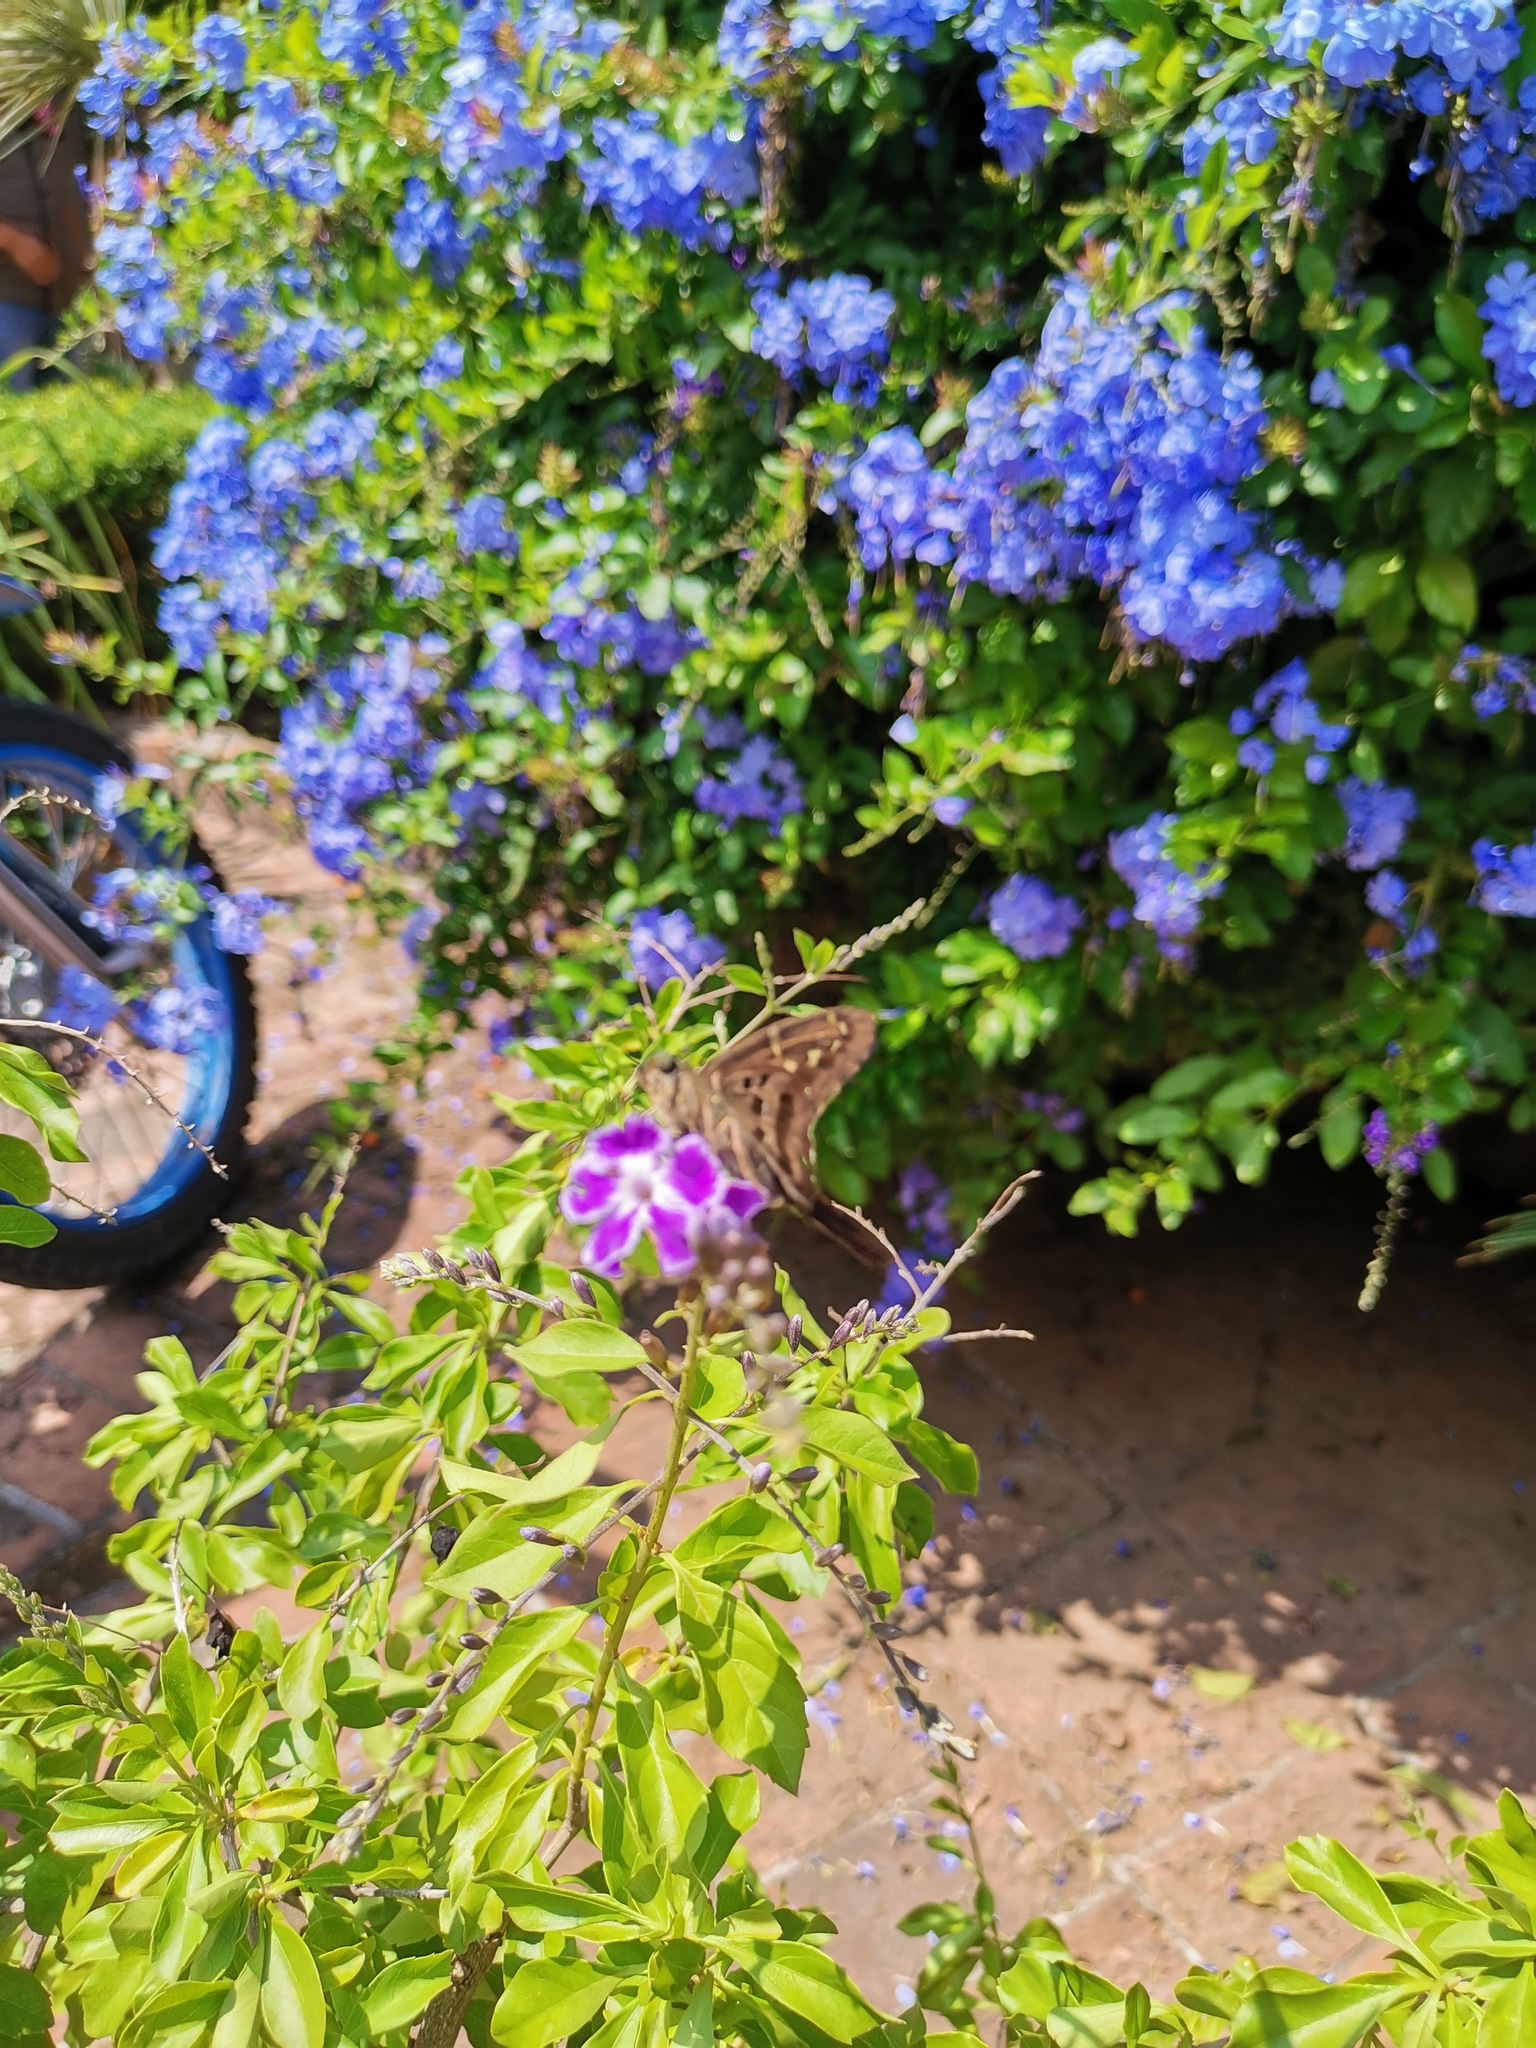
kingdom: Animalia
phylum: Arthropoda
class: Insecta
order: Lepidoptera
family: Hesperiidae
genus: Urbanus
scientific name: Urbanus proteus
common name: Long-tailed skipper
